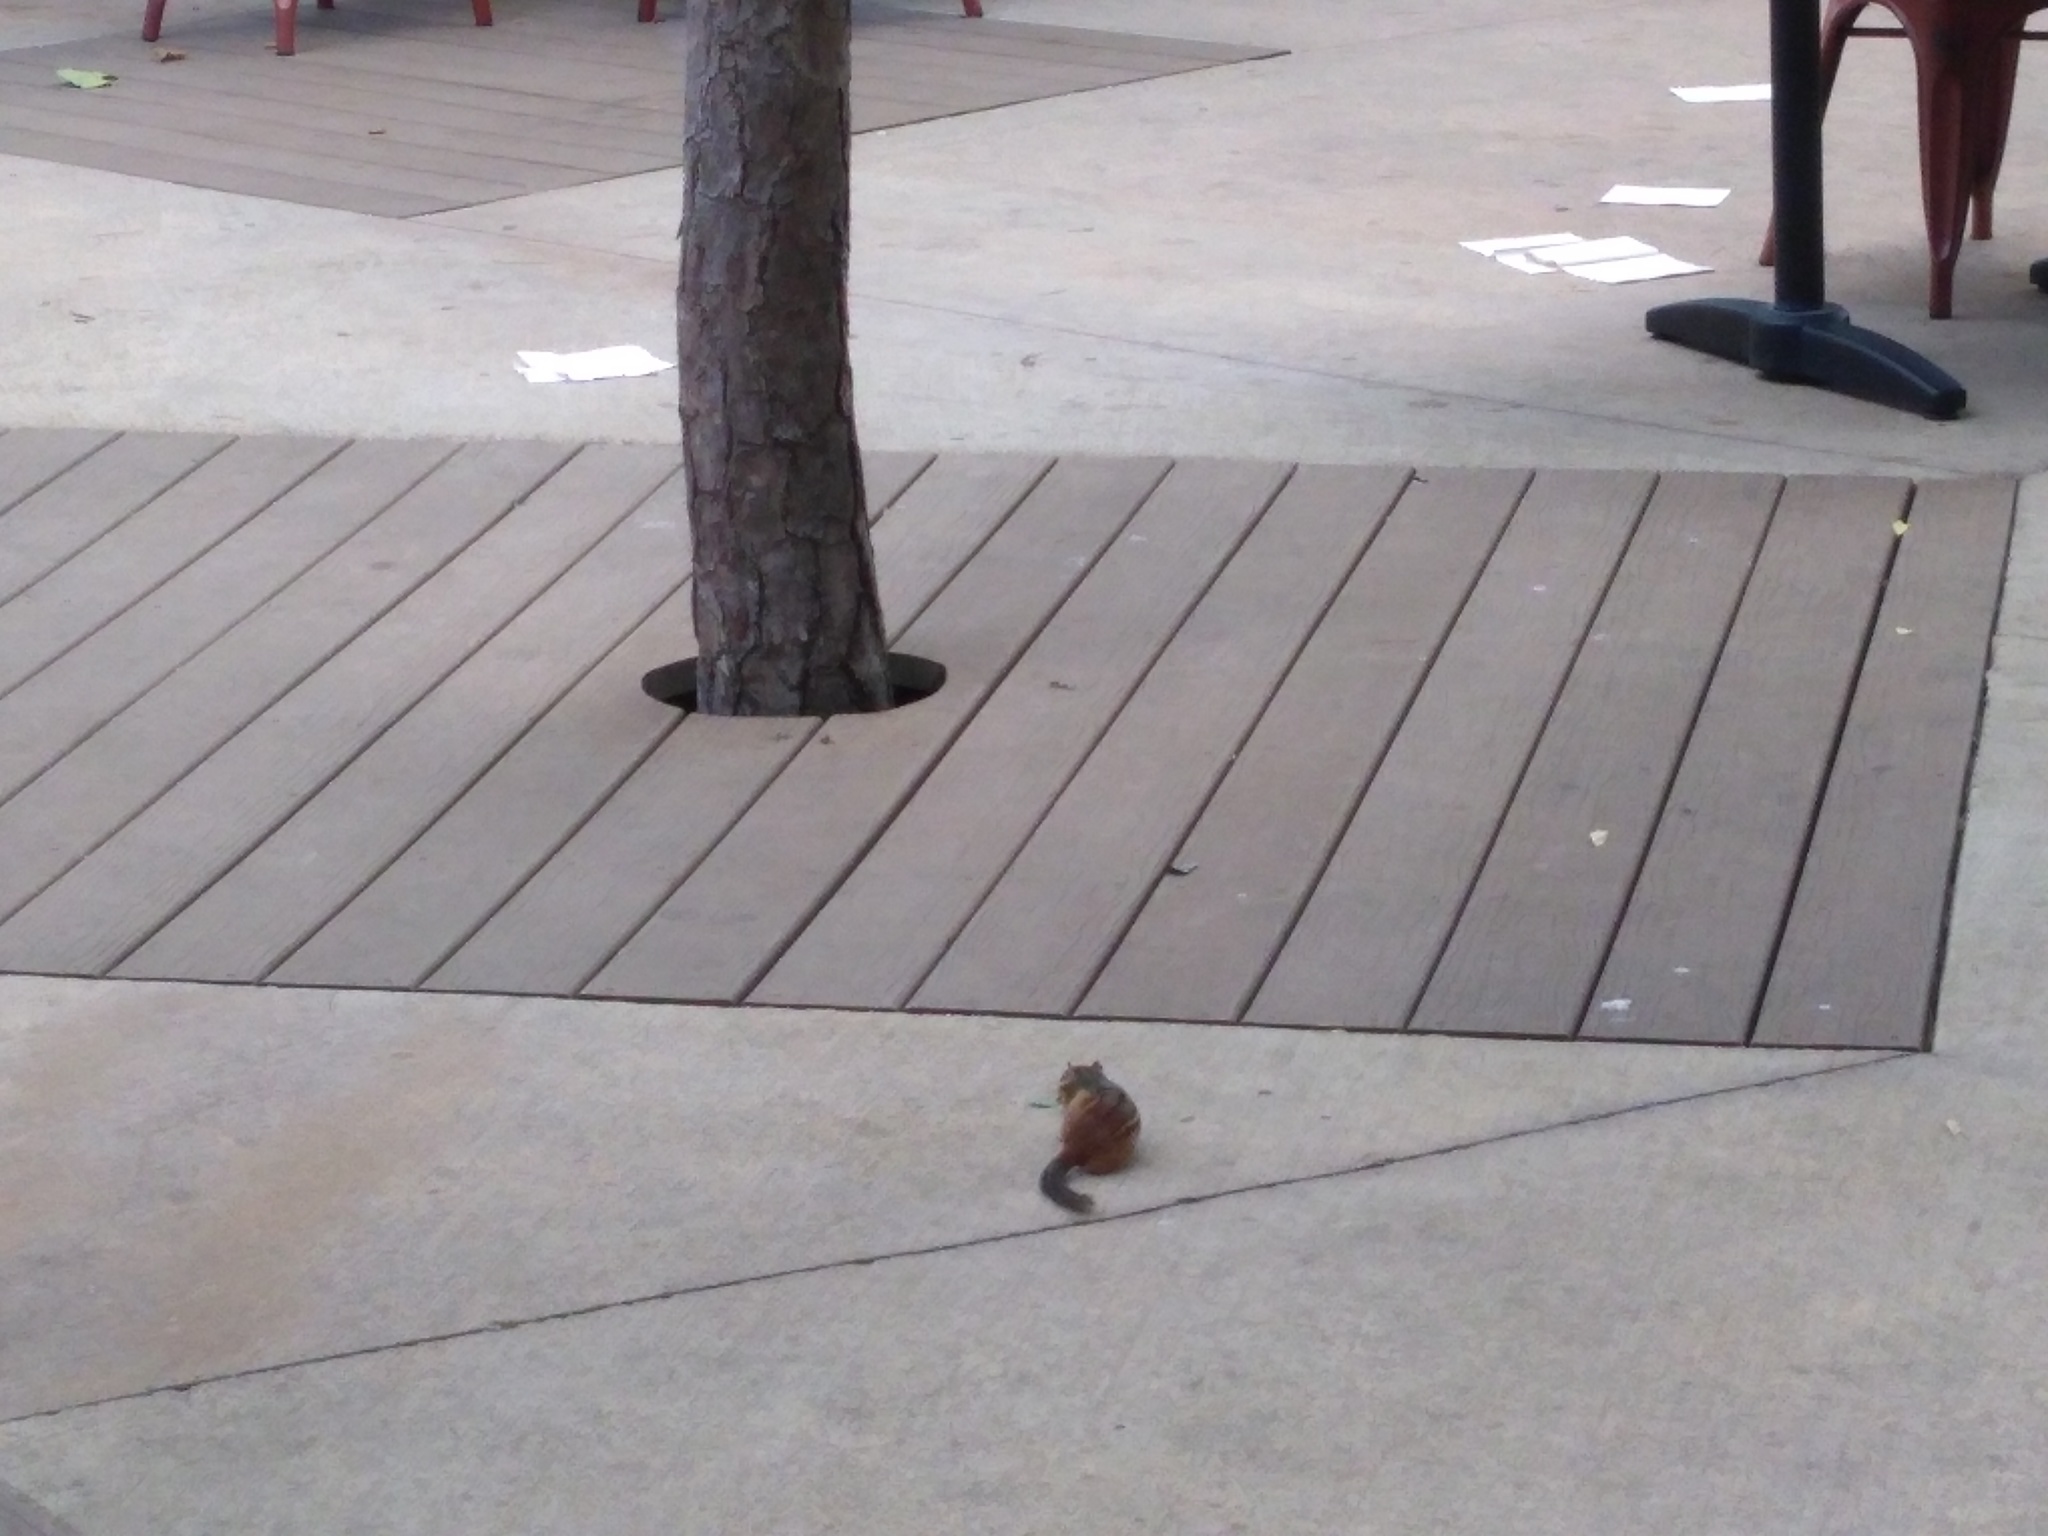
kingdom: Animalia
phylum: Chordata
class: Mammalia
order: Rodentia
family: Sciuridae
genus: Tamias
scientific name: Tamias striatus
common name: Eastern chipmunk
